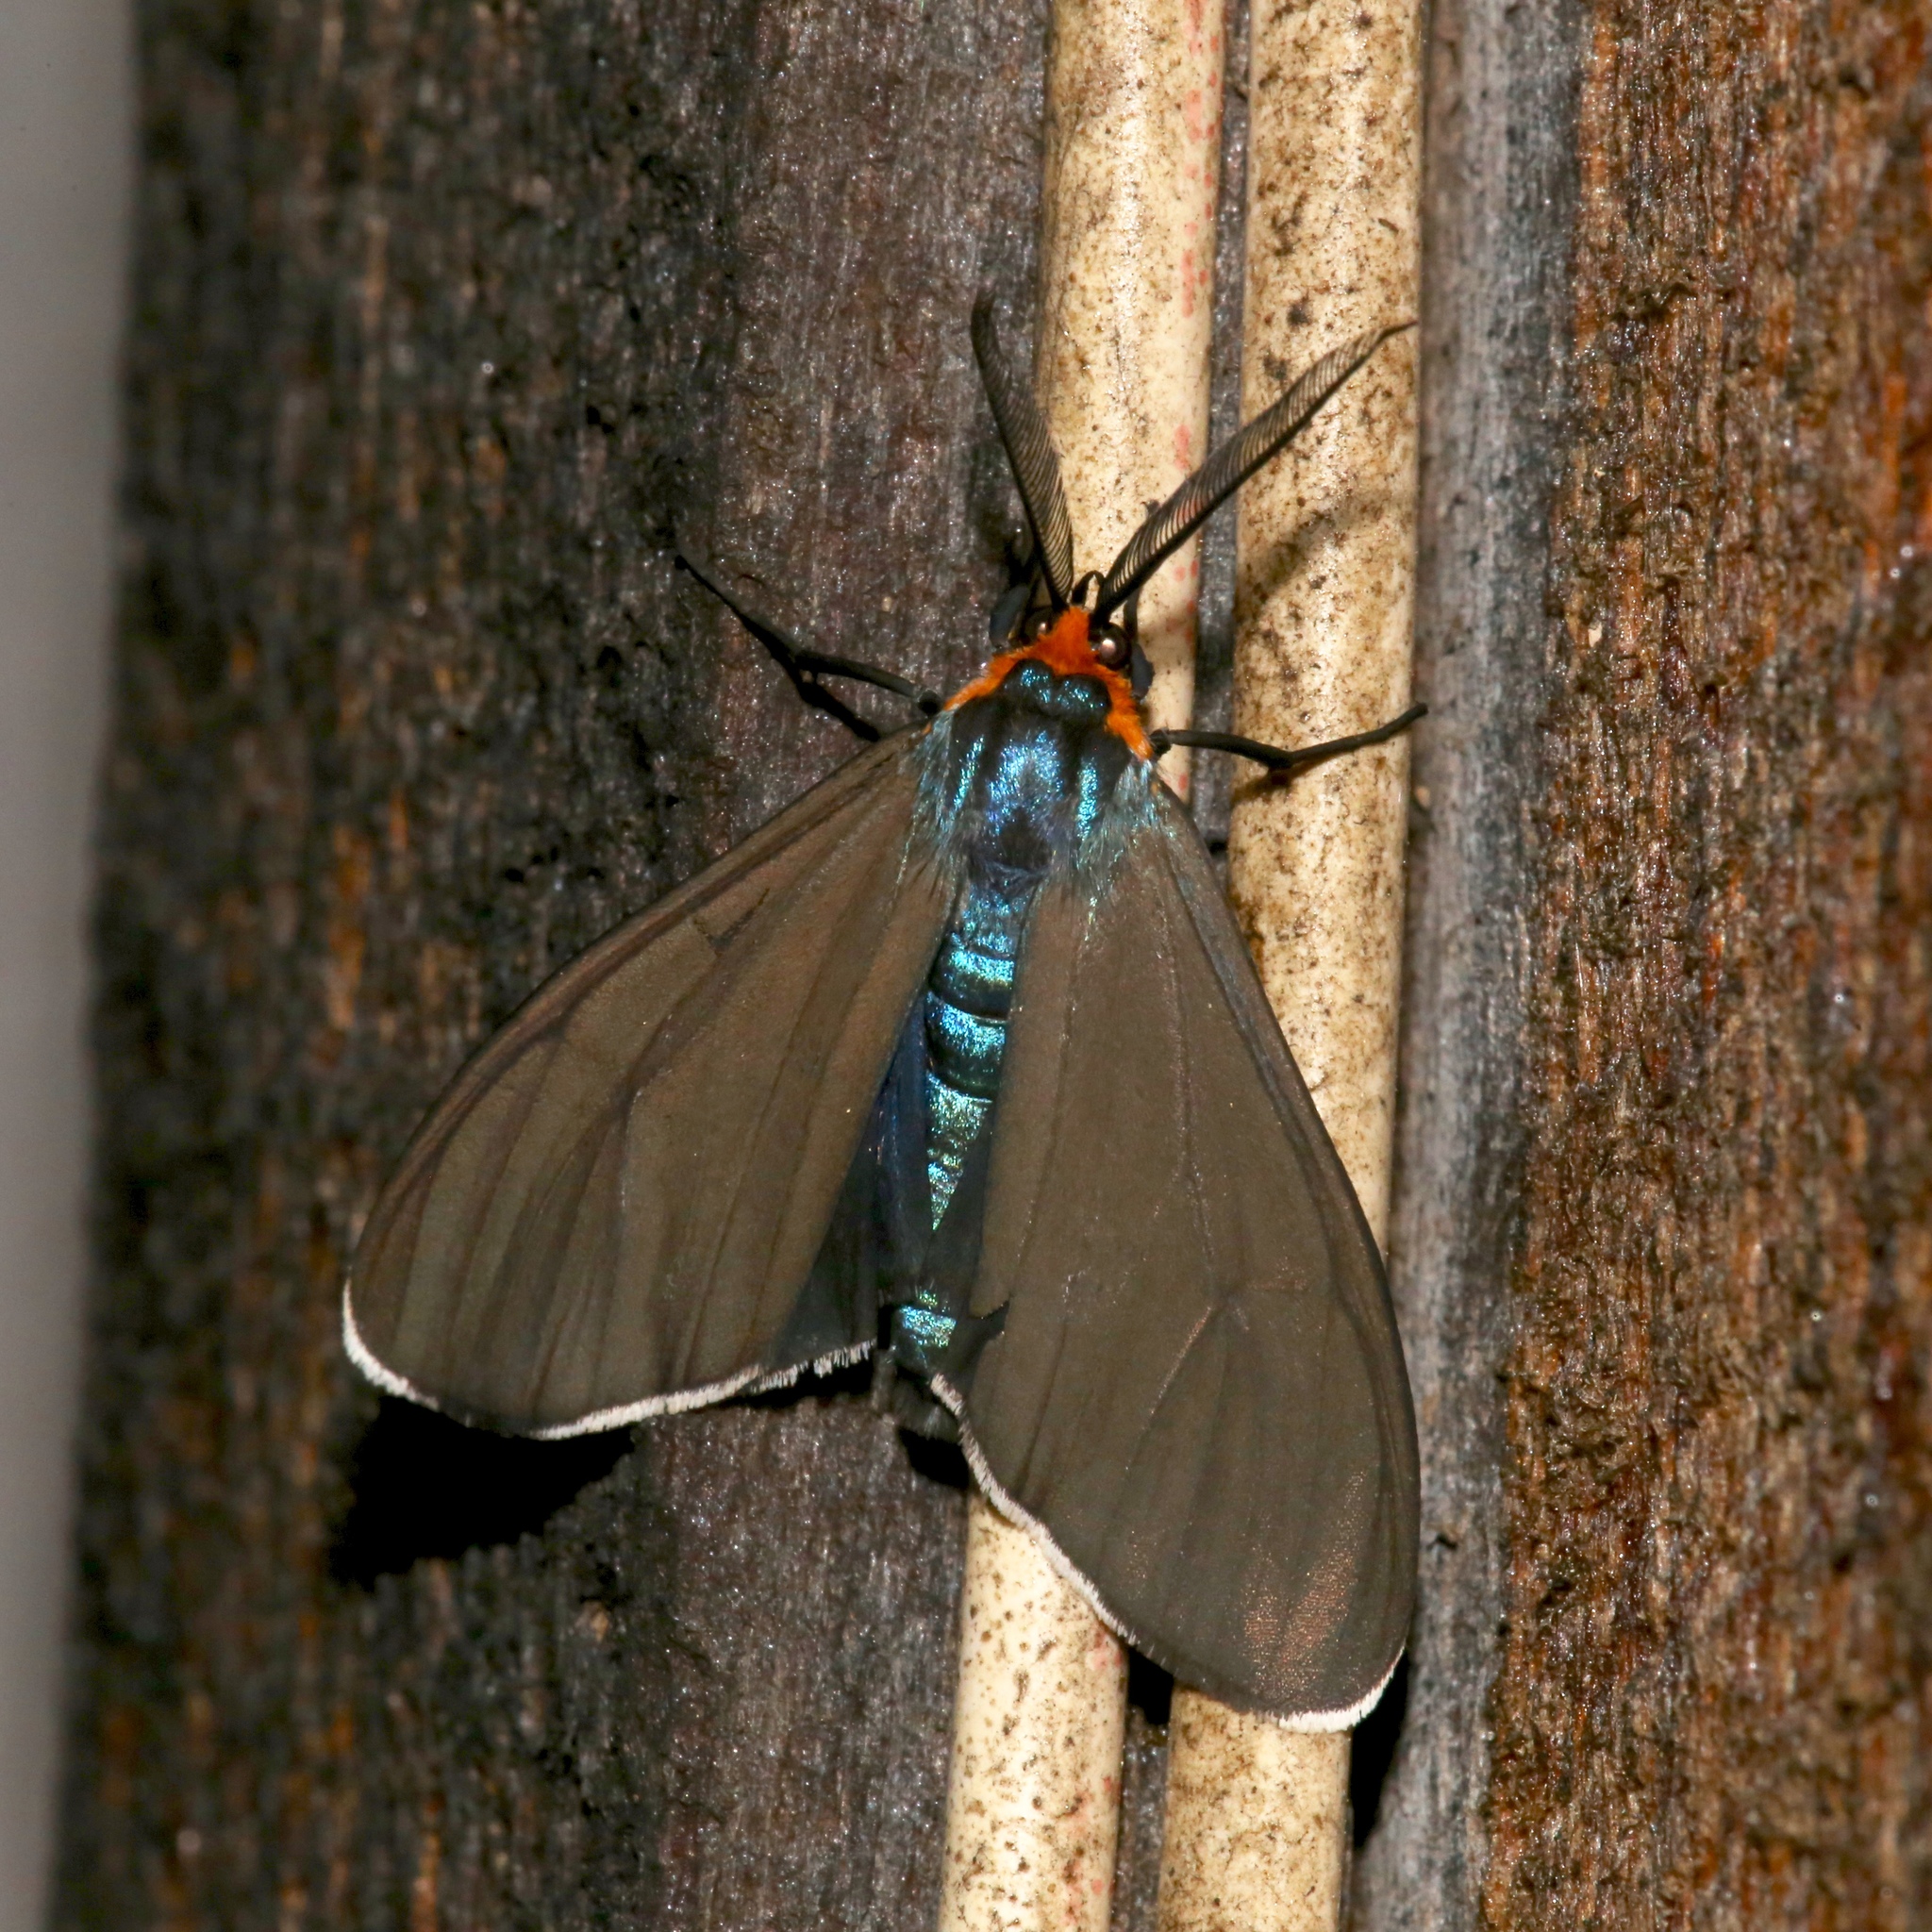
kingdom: Animalia
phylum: Arthropoda
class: Insecta
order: Lepidoptera
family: Erebidae
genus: Ctenucha
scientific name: Ctenucha virginica
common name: Virginia ctenucha moth
